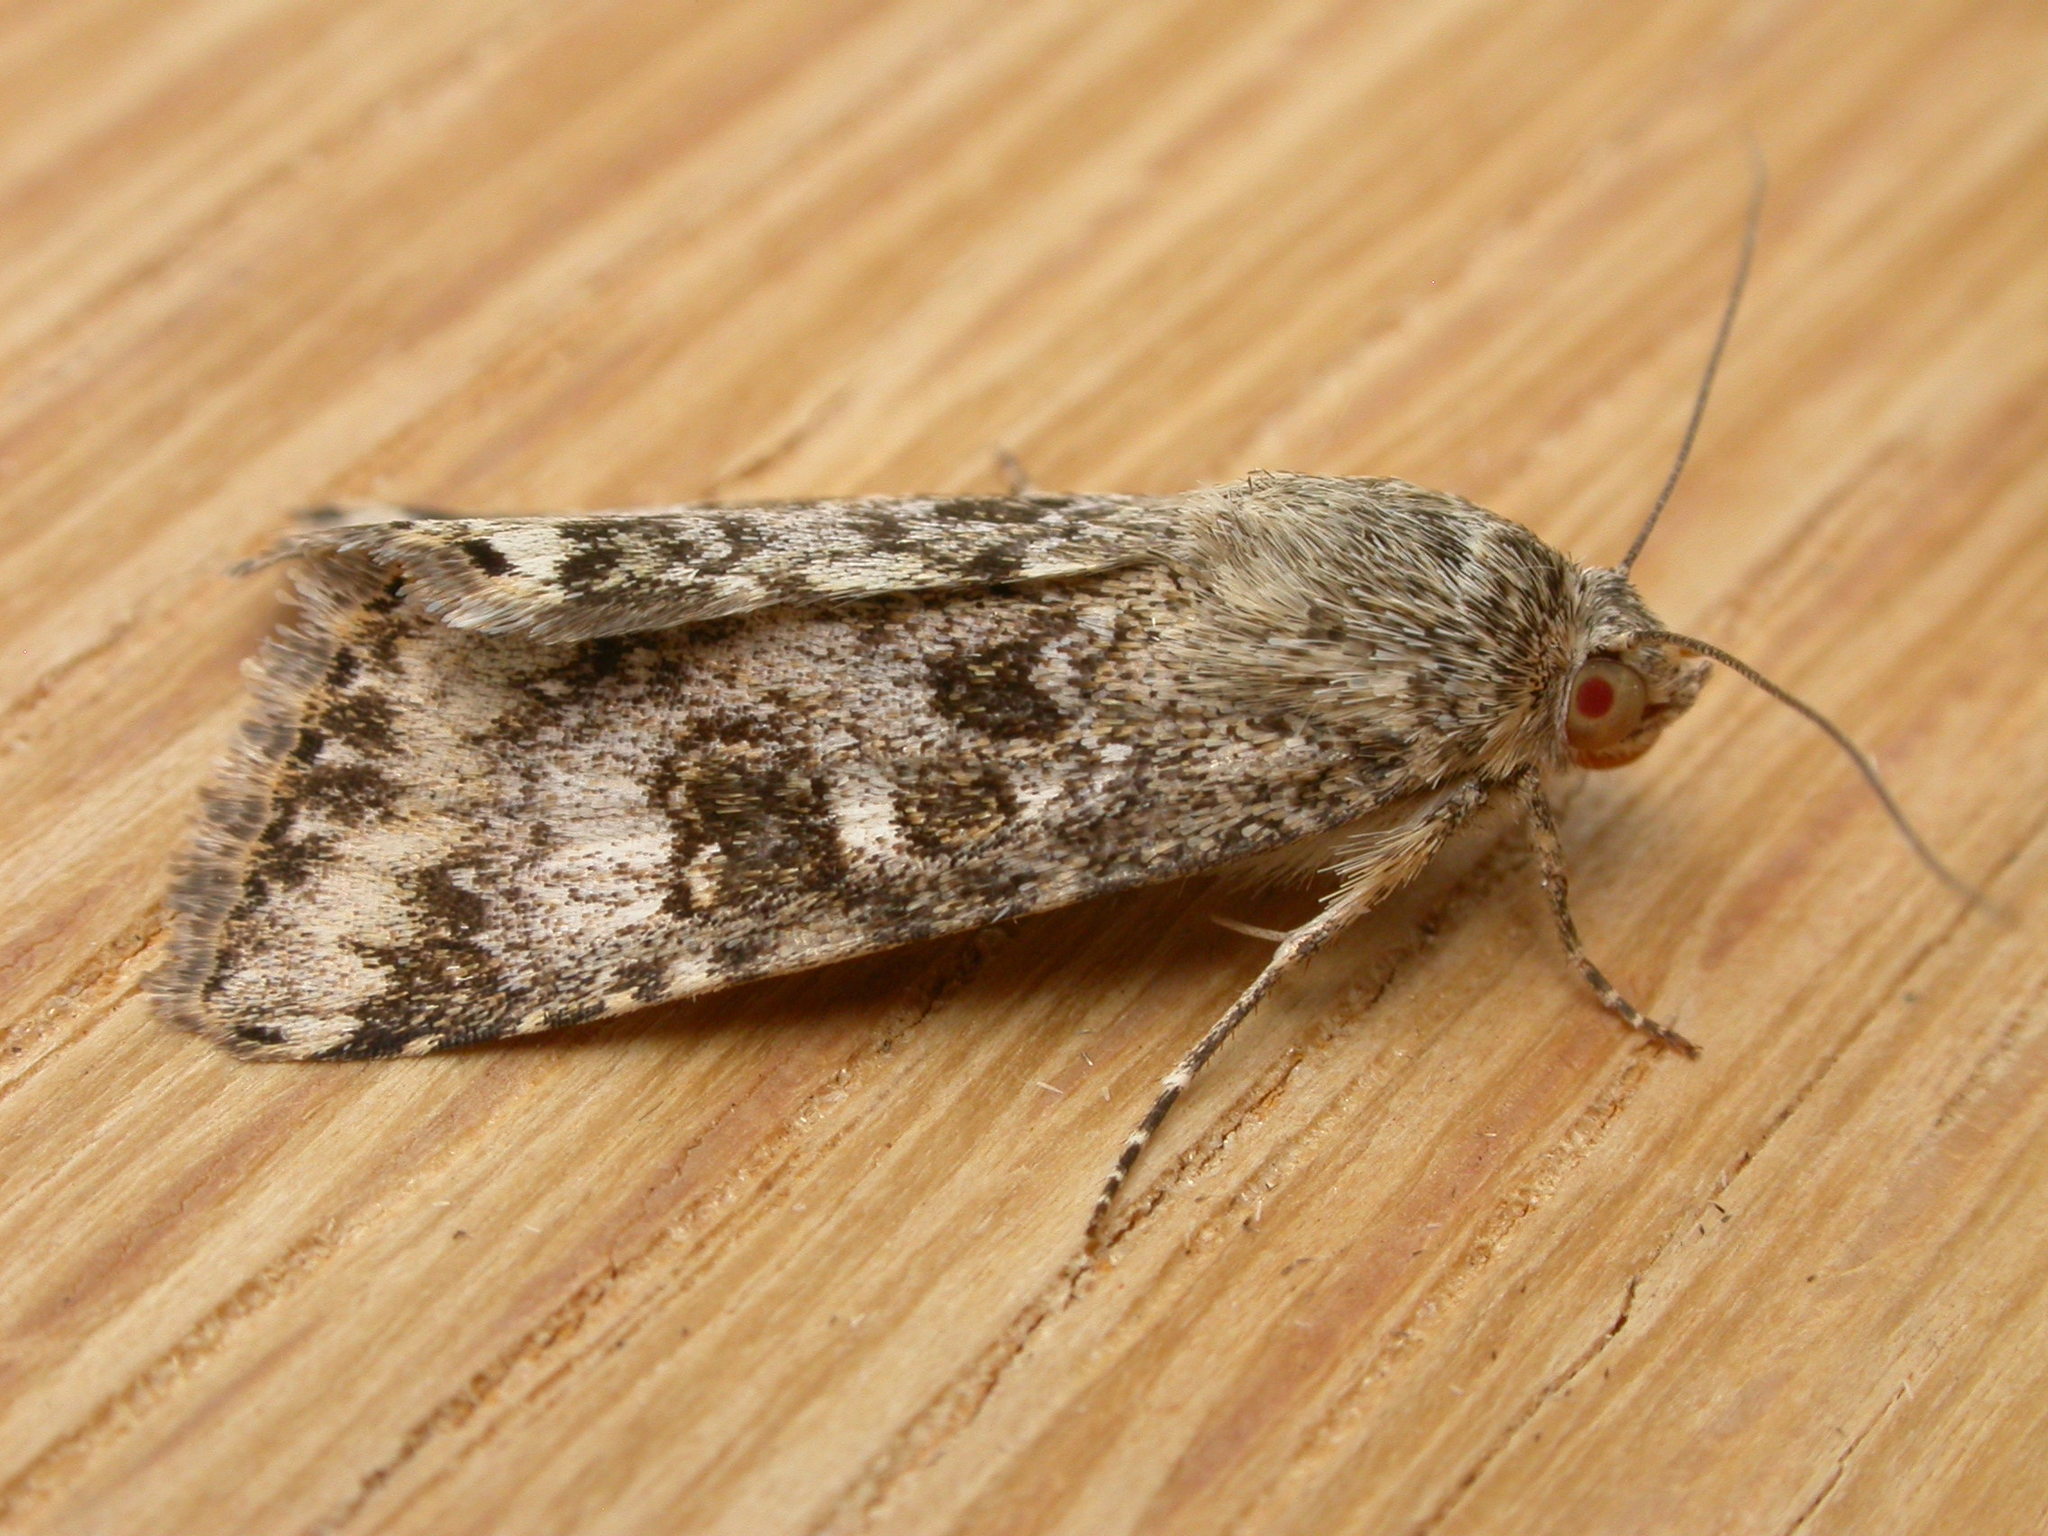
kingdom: Animalia
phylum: Arthropoda
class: Insecta
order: Lepidoptera
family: Noctuidae
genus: Heliothis
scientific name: Heliothis punctifera
